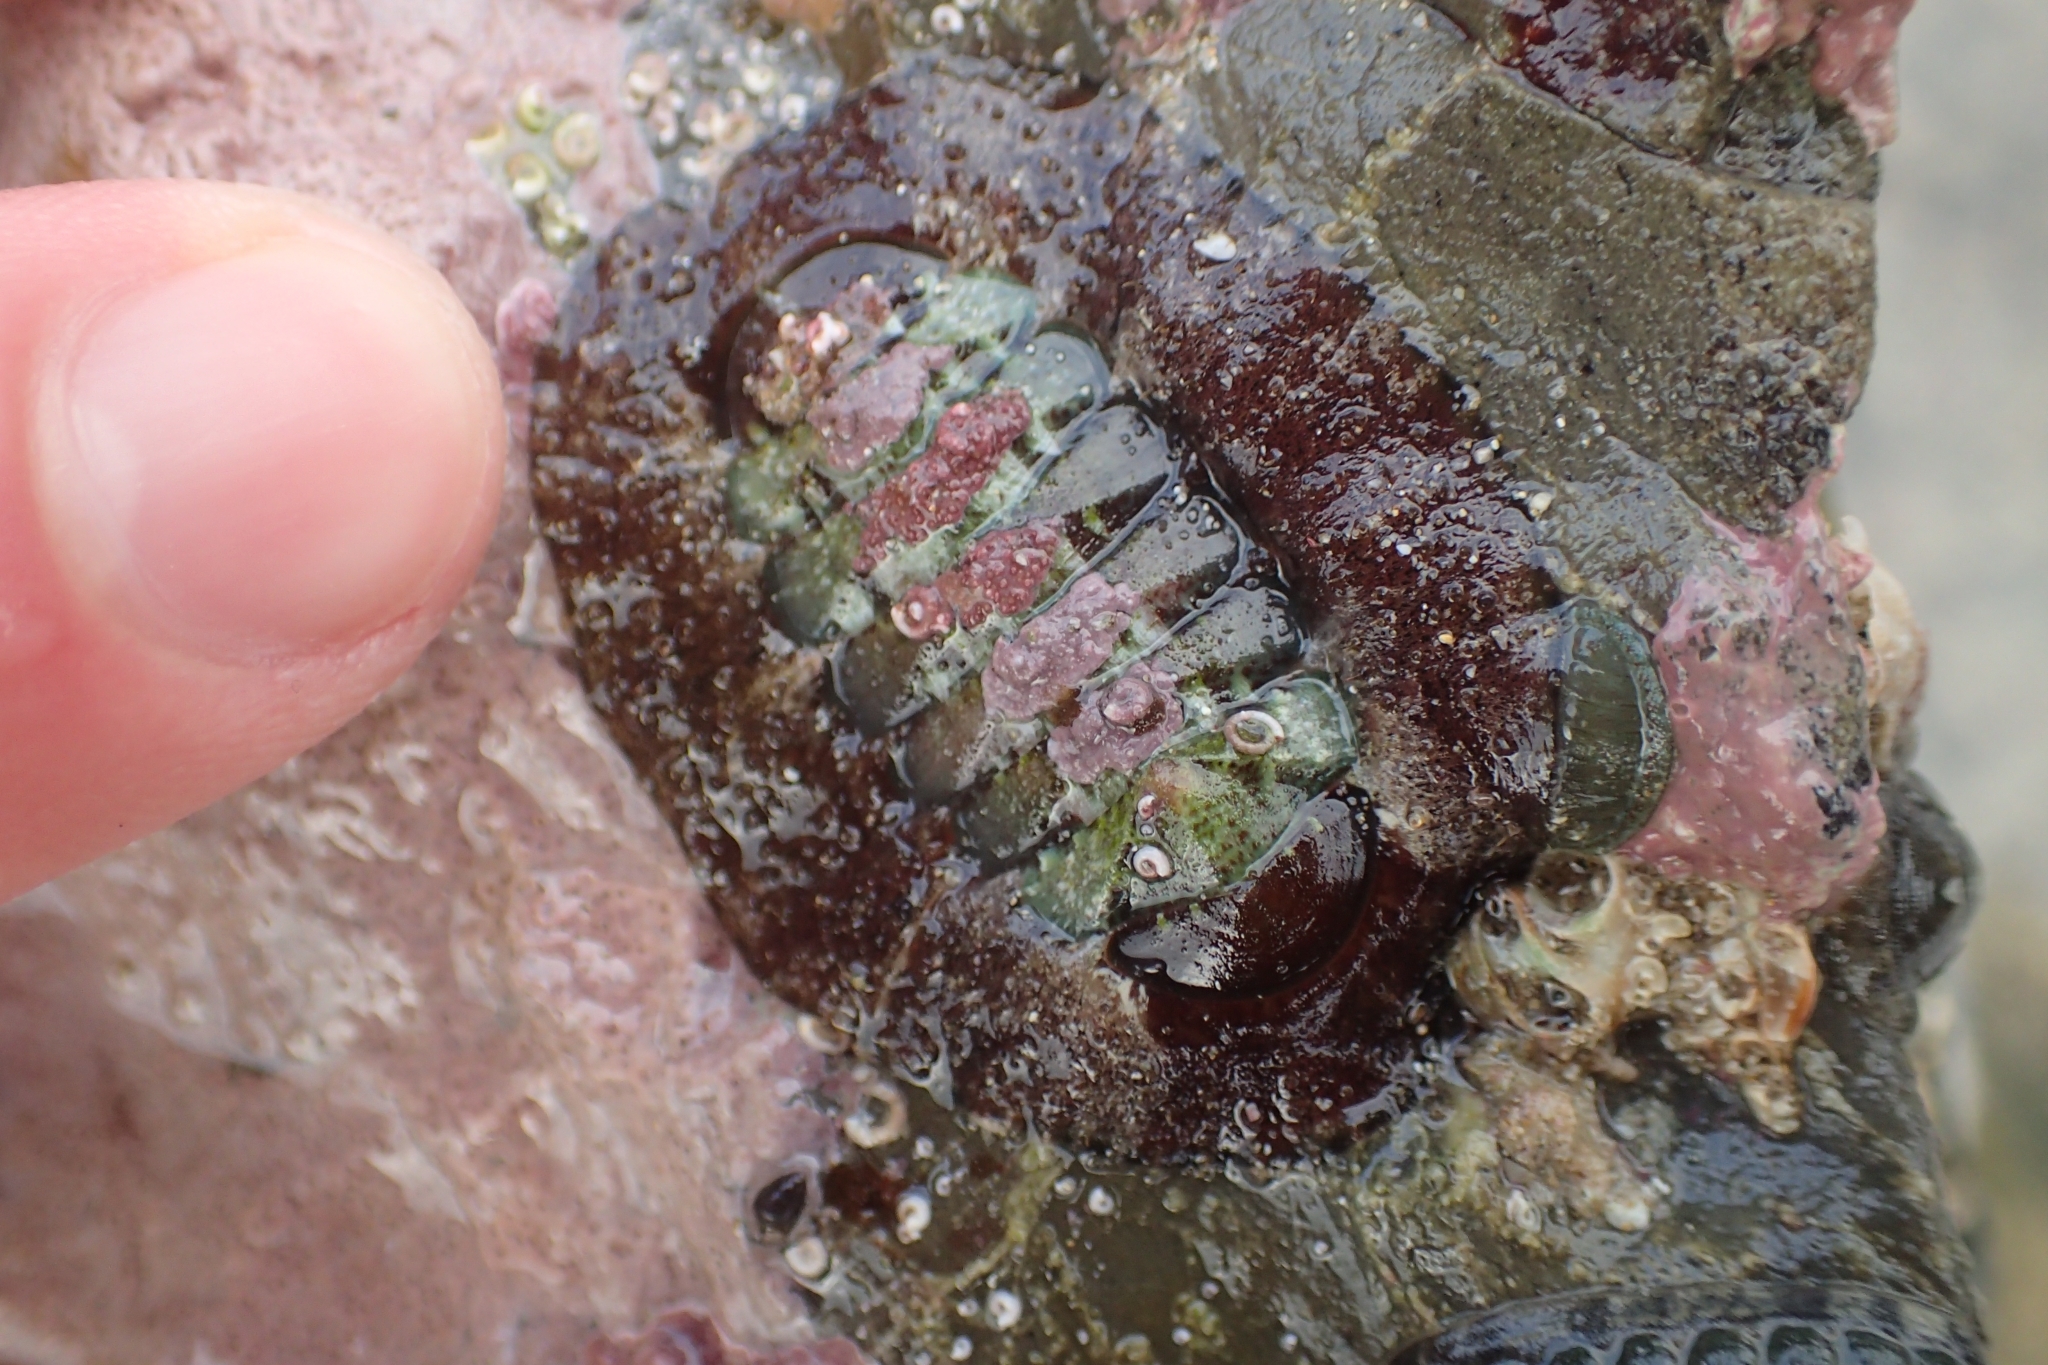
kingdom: Animalia
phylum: Mollusca
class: Polyplacophora
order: Callochitonida
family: Callochitonidae
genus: Eudoxochiton
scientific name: Eudoxochiton nobilis
